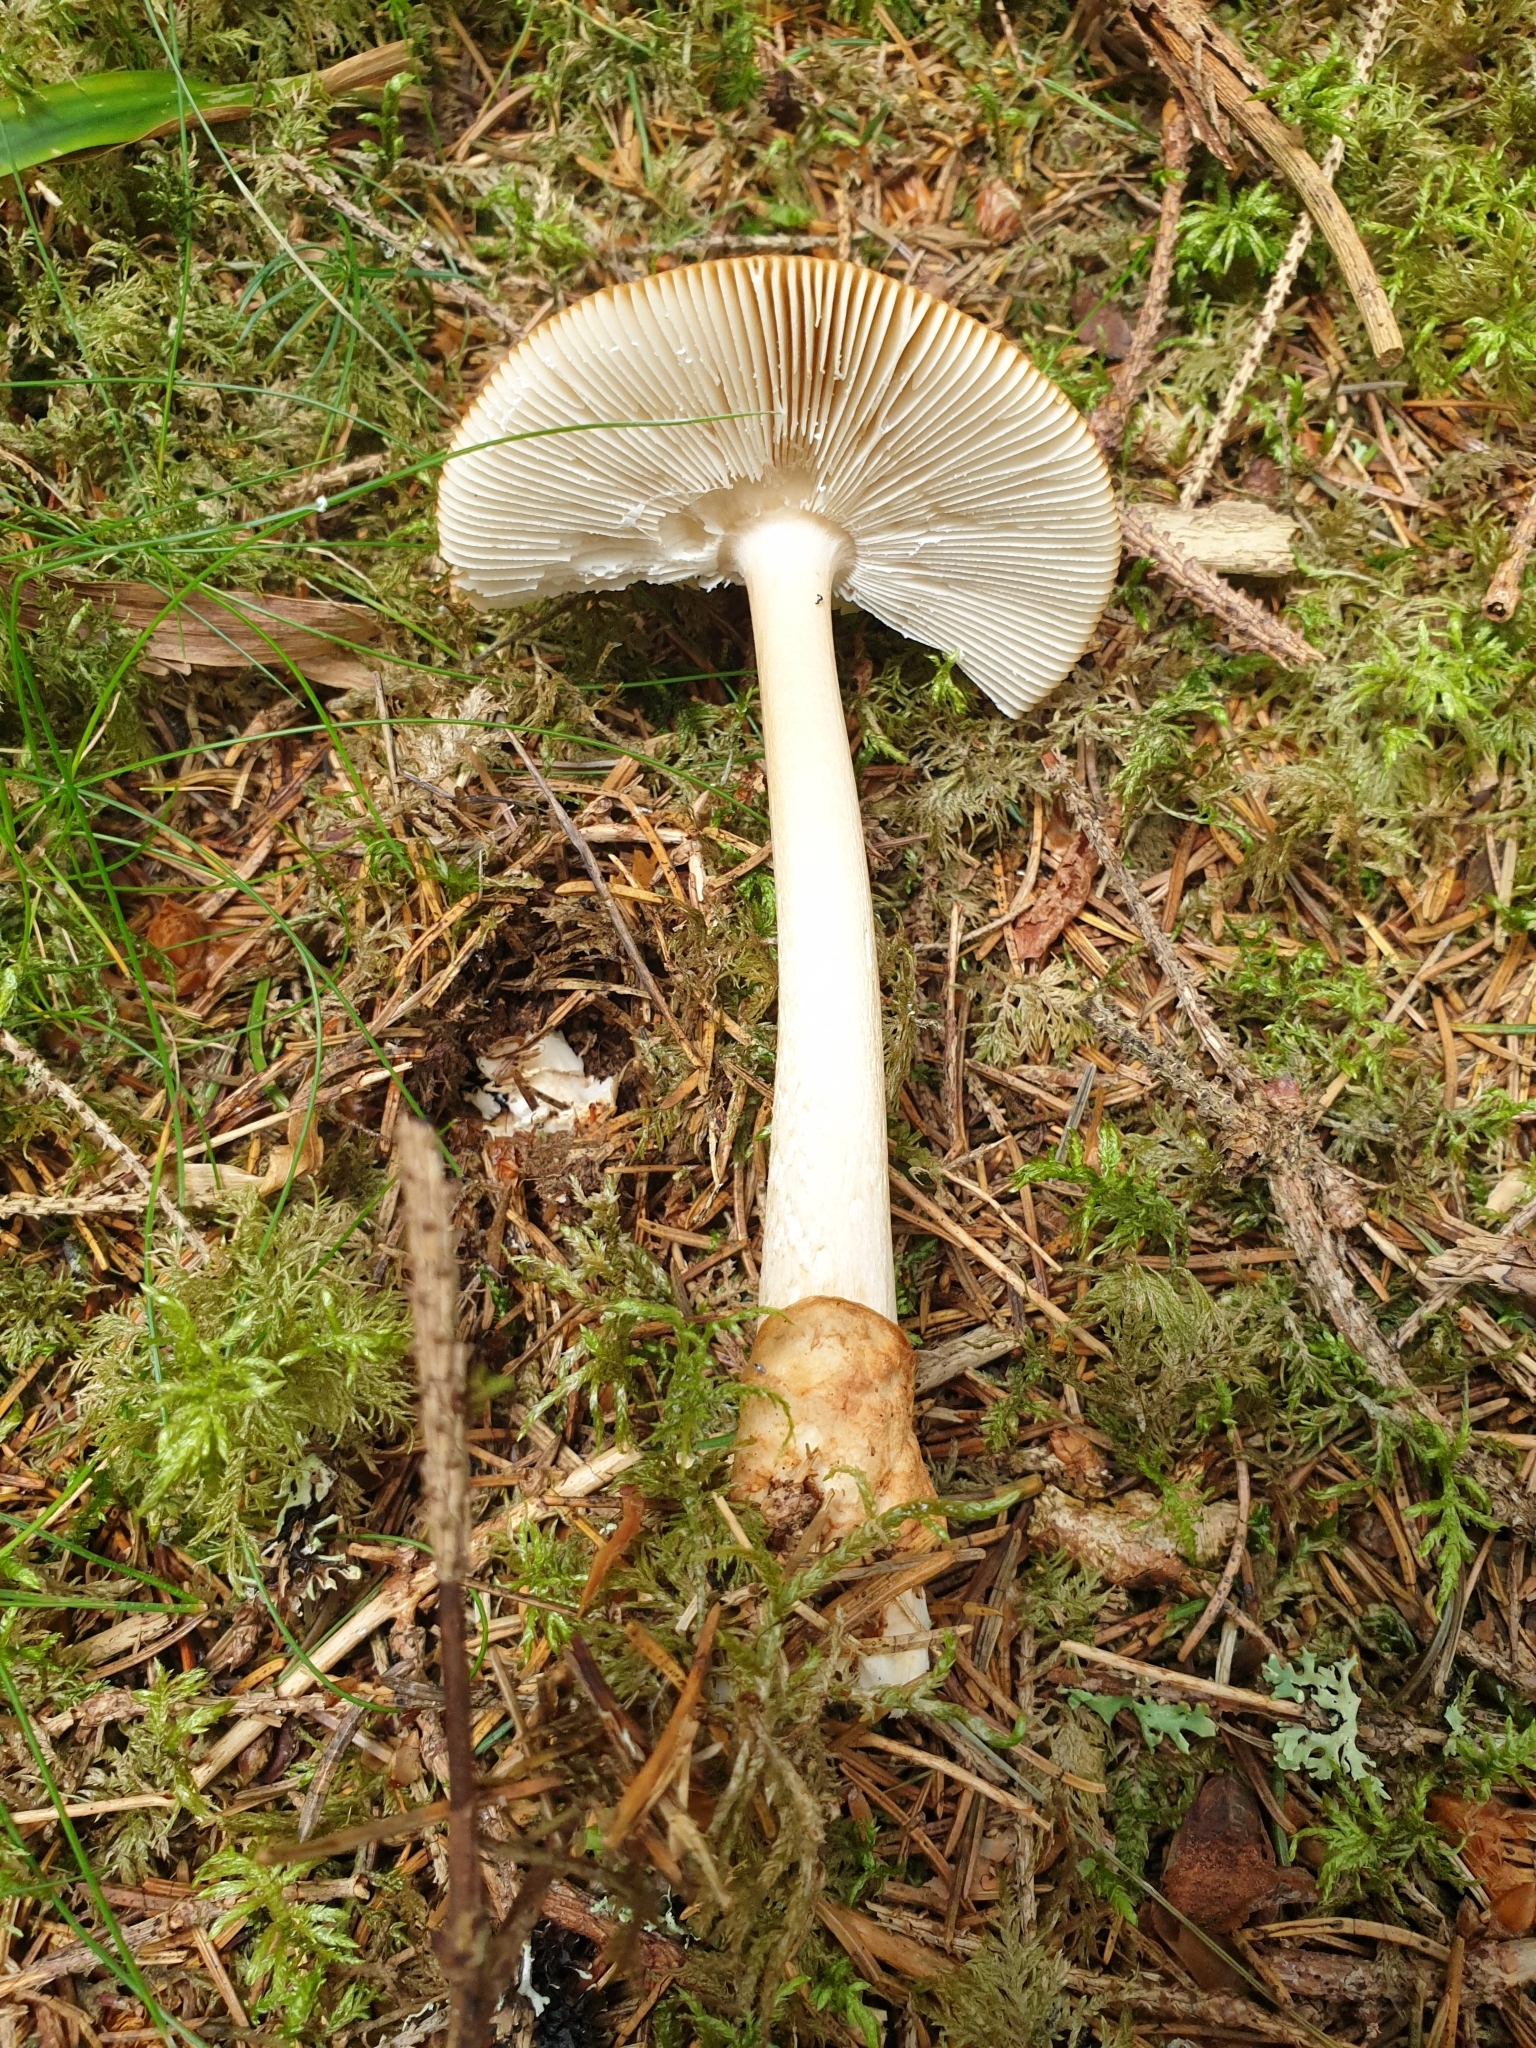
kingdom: Fungi
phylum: Basidiomycota
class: Agaricomycetes
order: Agaricales
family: Amanitaceae
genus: Amanita
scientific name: Amanita fulva
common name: Tawny grisette
